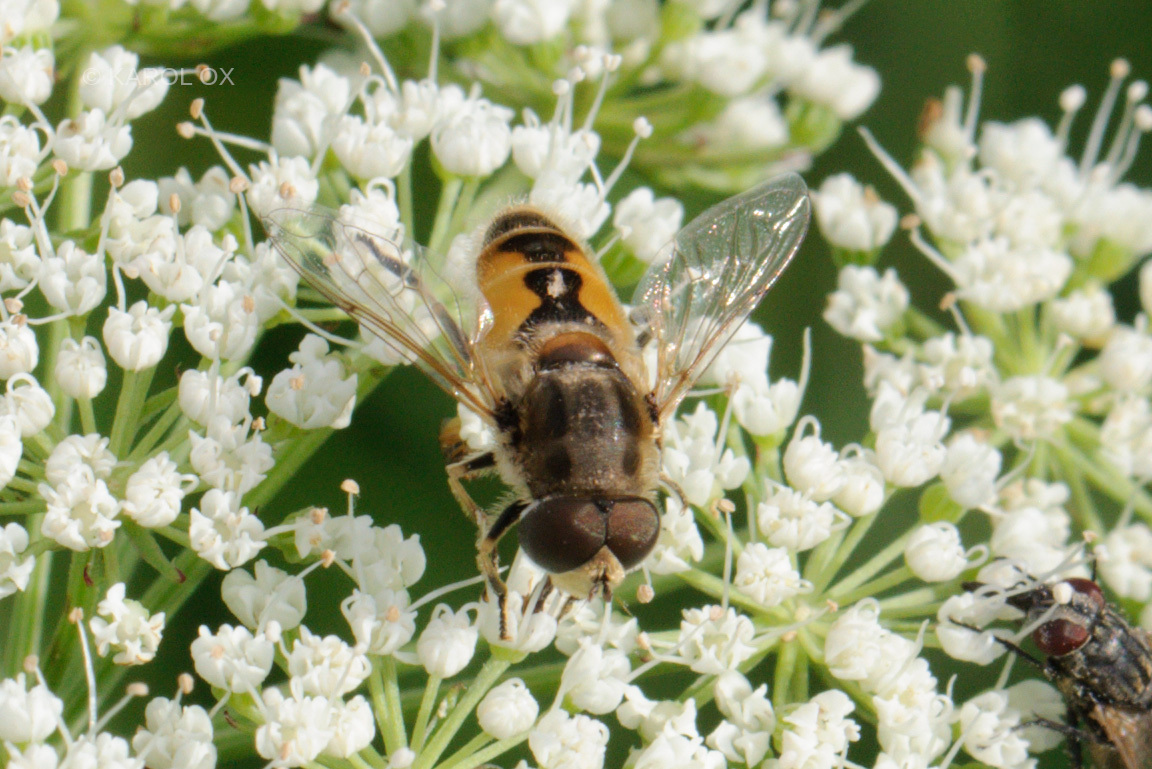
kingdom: Animalia
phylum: Arthropoda
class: Insecta
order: Diptera
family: Syrphidae
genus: Eristalis
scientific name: Eristalis arbustorum
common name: Hover fly
